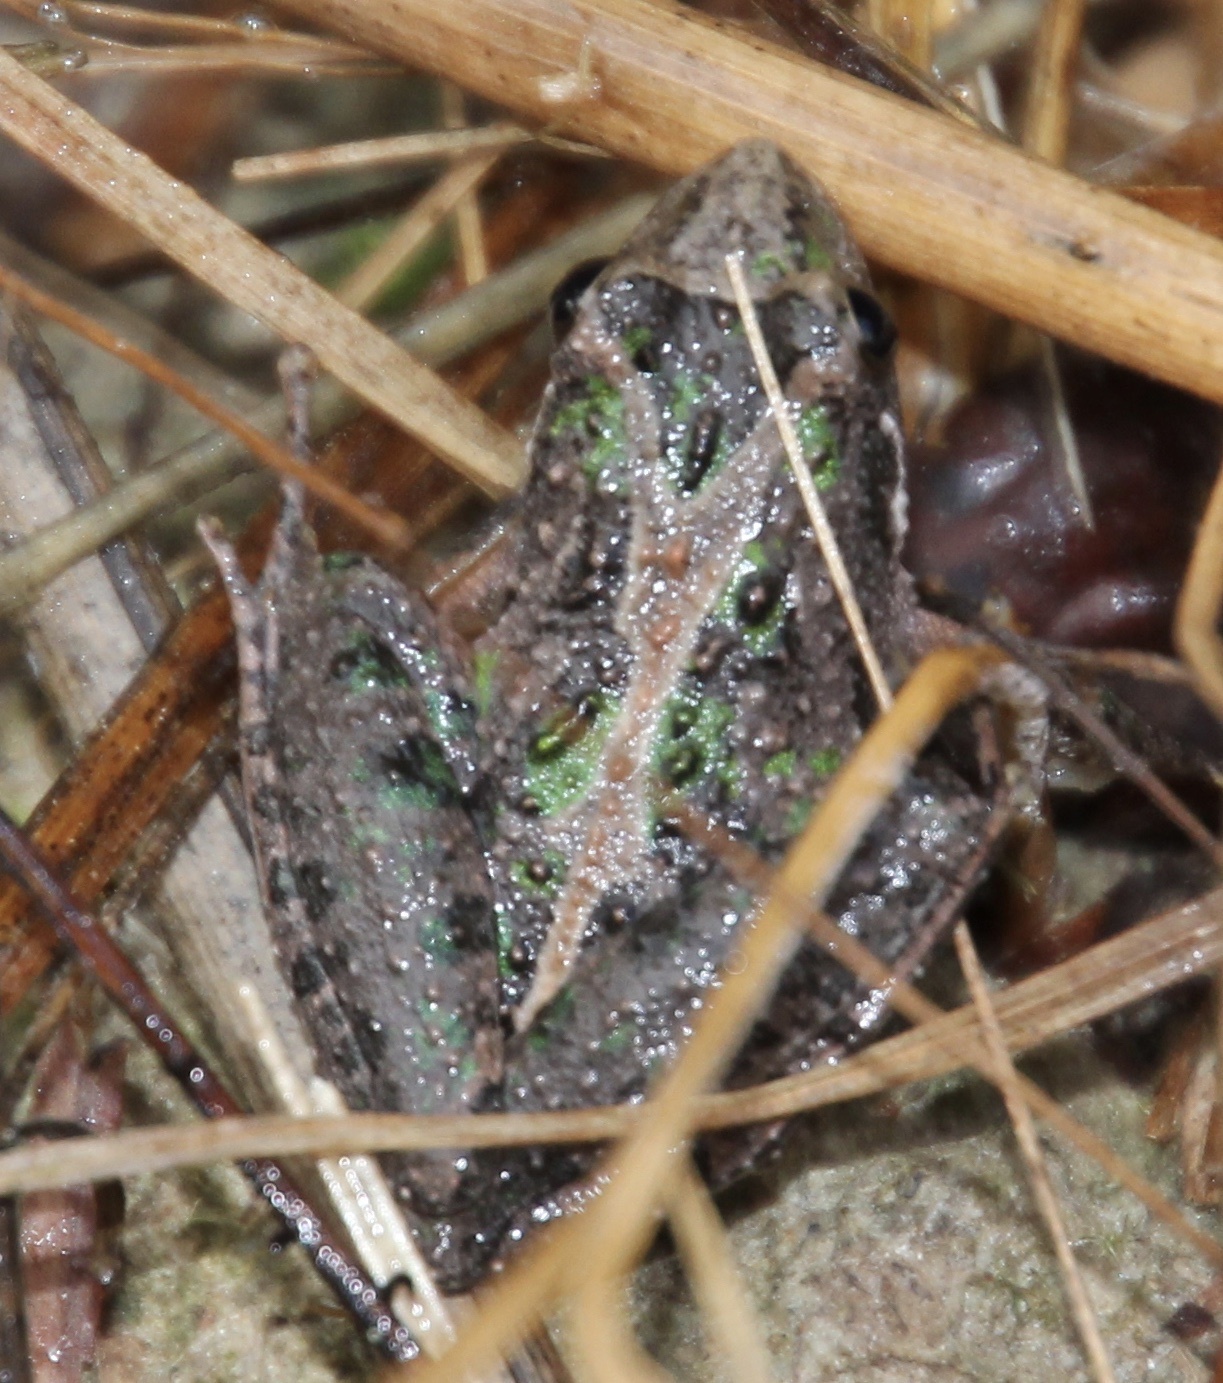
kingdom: Animalia
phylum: Chordata
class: Amphibia
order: Anura
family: Hylidae
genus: Acris
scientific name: Acris gryllus
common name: Southern cricket frog
